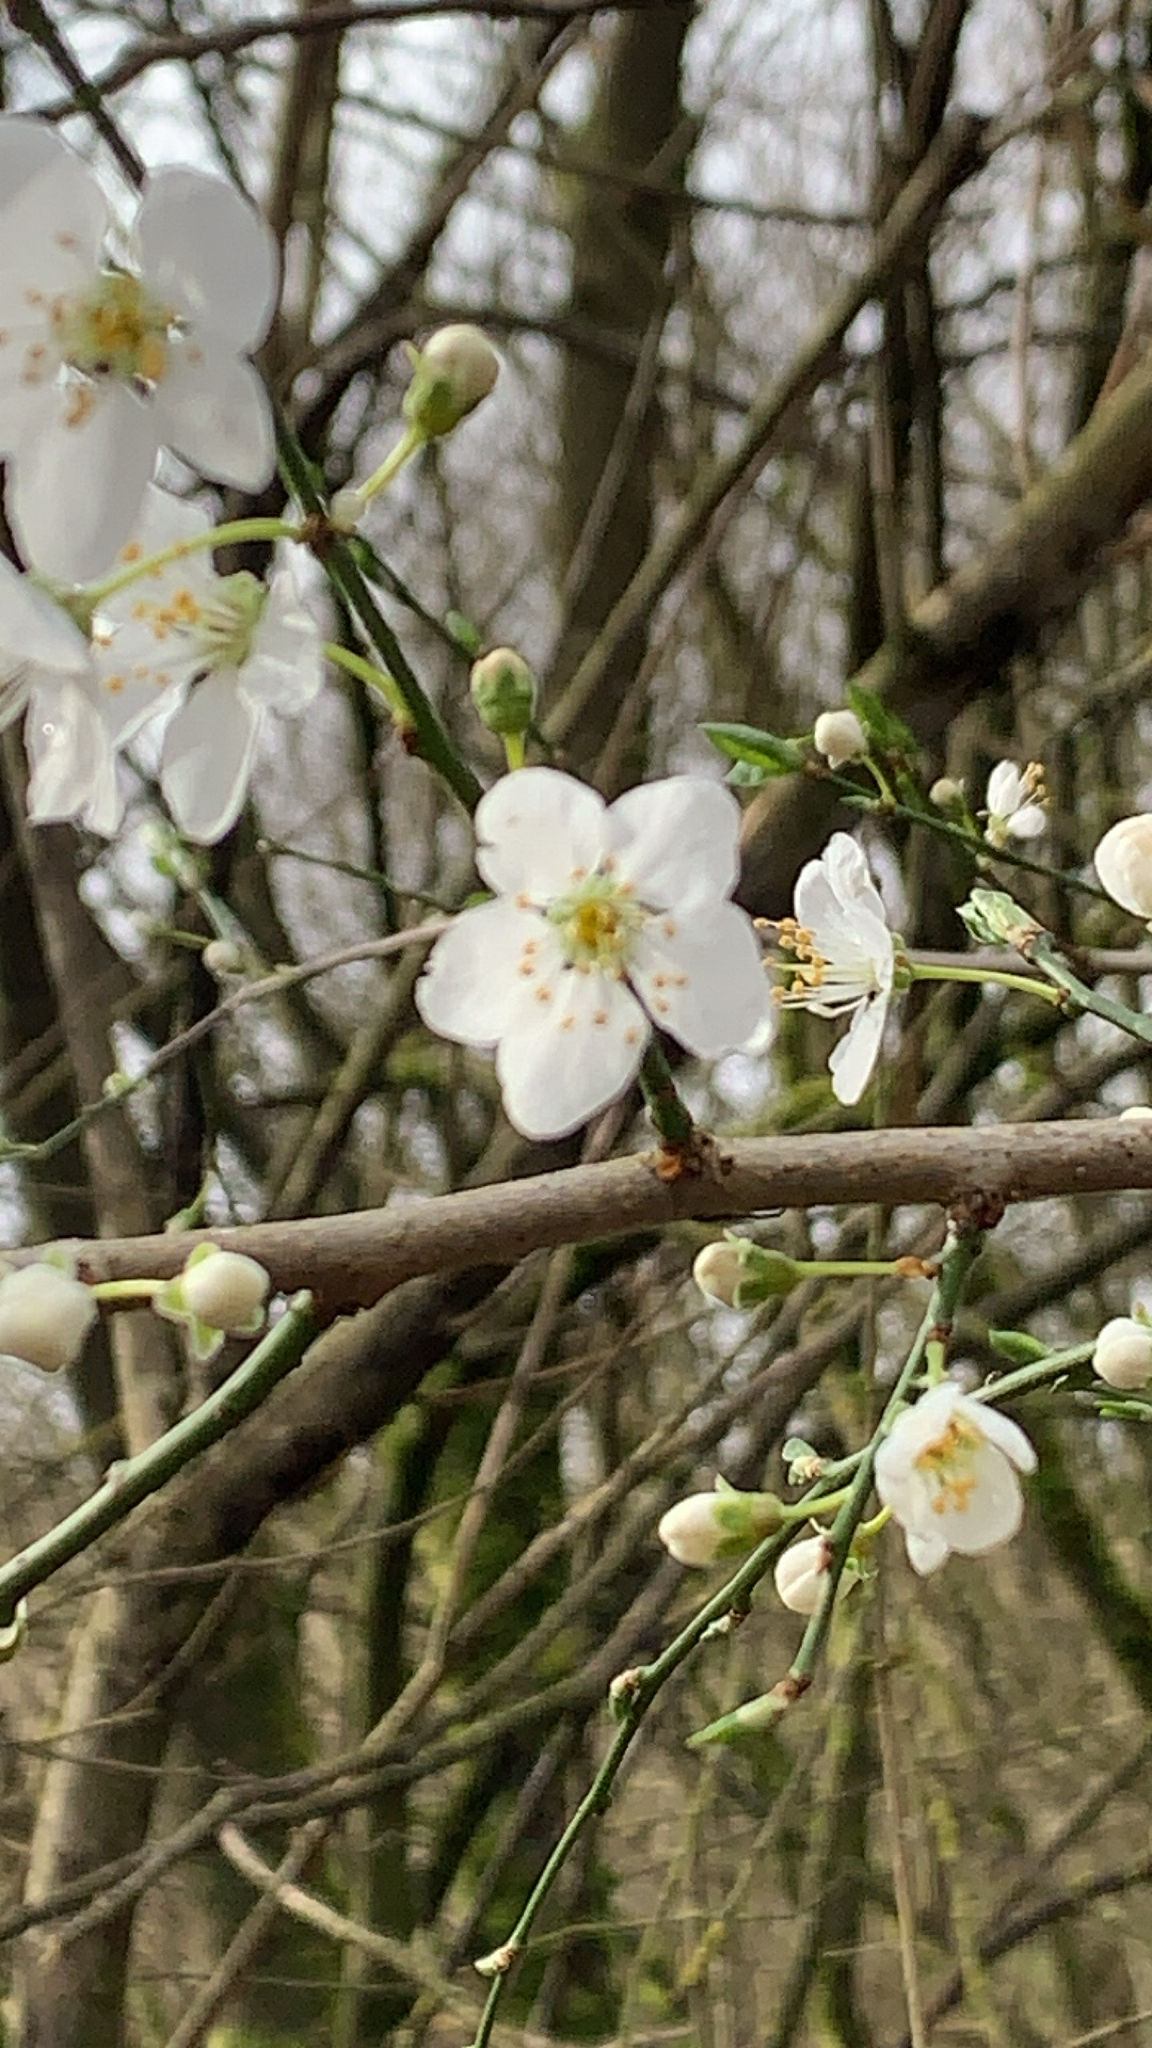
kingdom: Plantae
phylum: Tracheophyta
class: Magnoliopsida
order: Rosales
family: Rosaceae
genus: Prunus
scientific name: Prunus cerasifera
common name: Cherry plum
